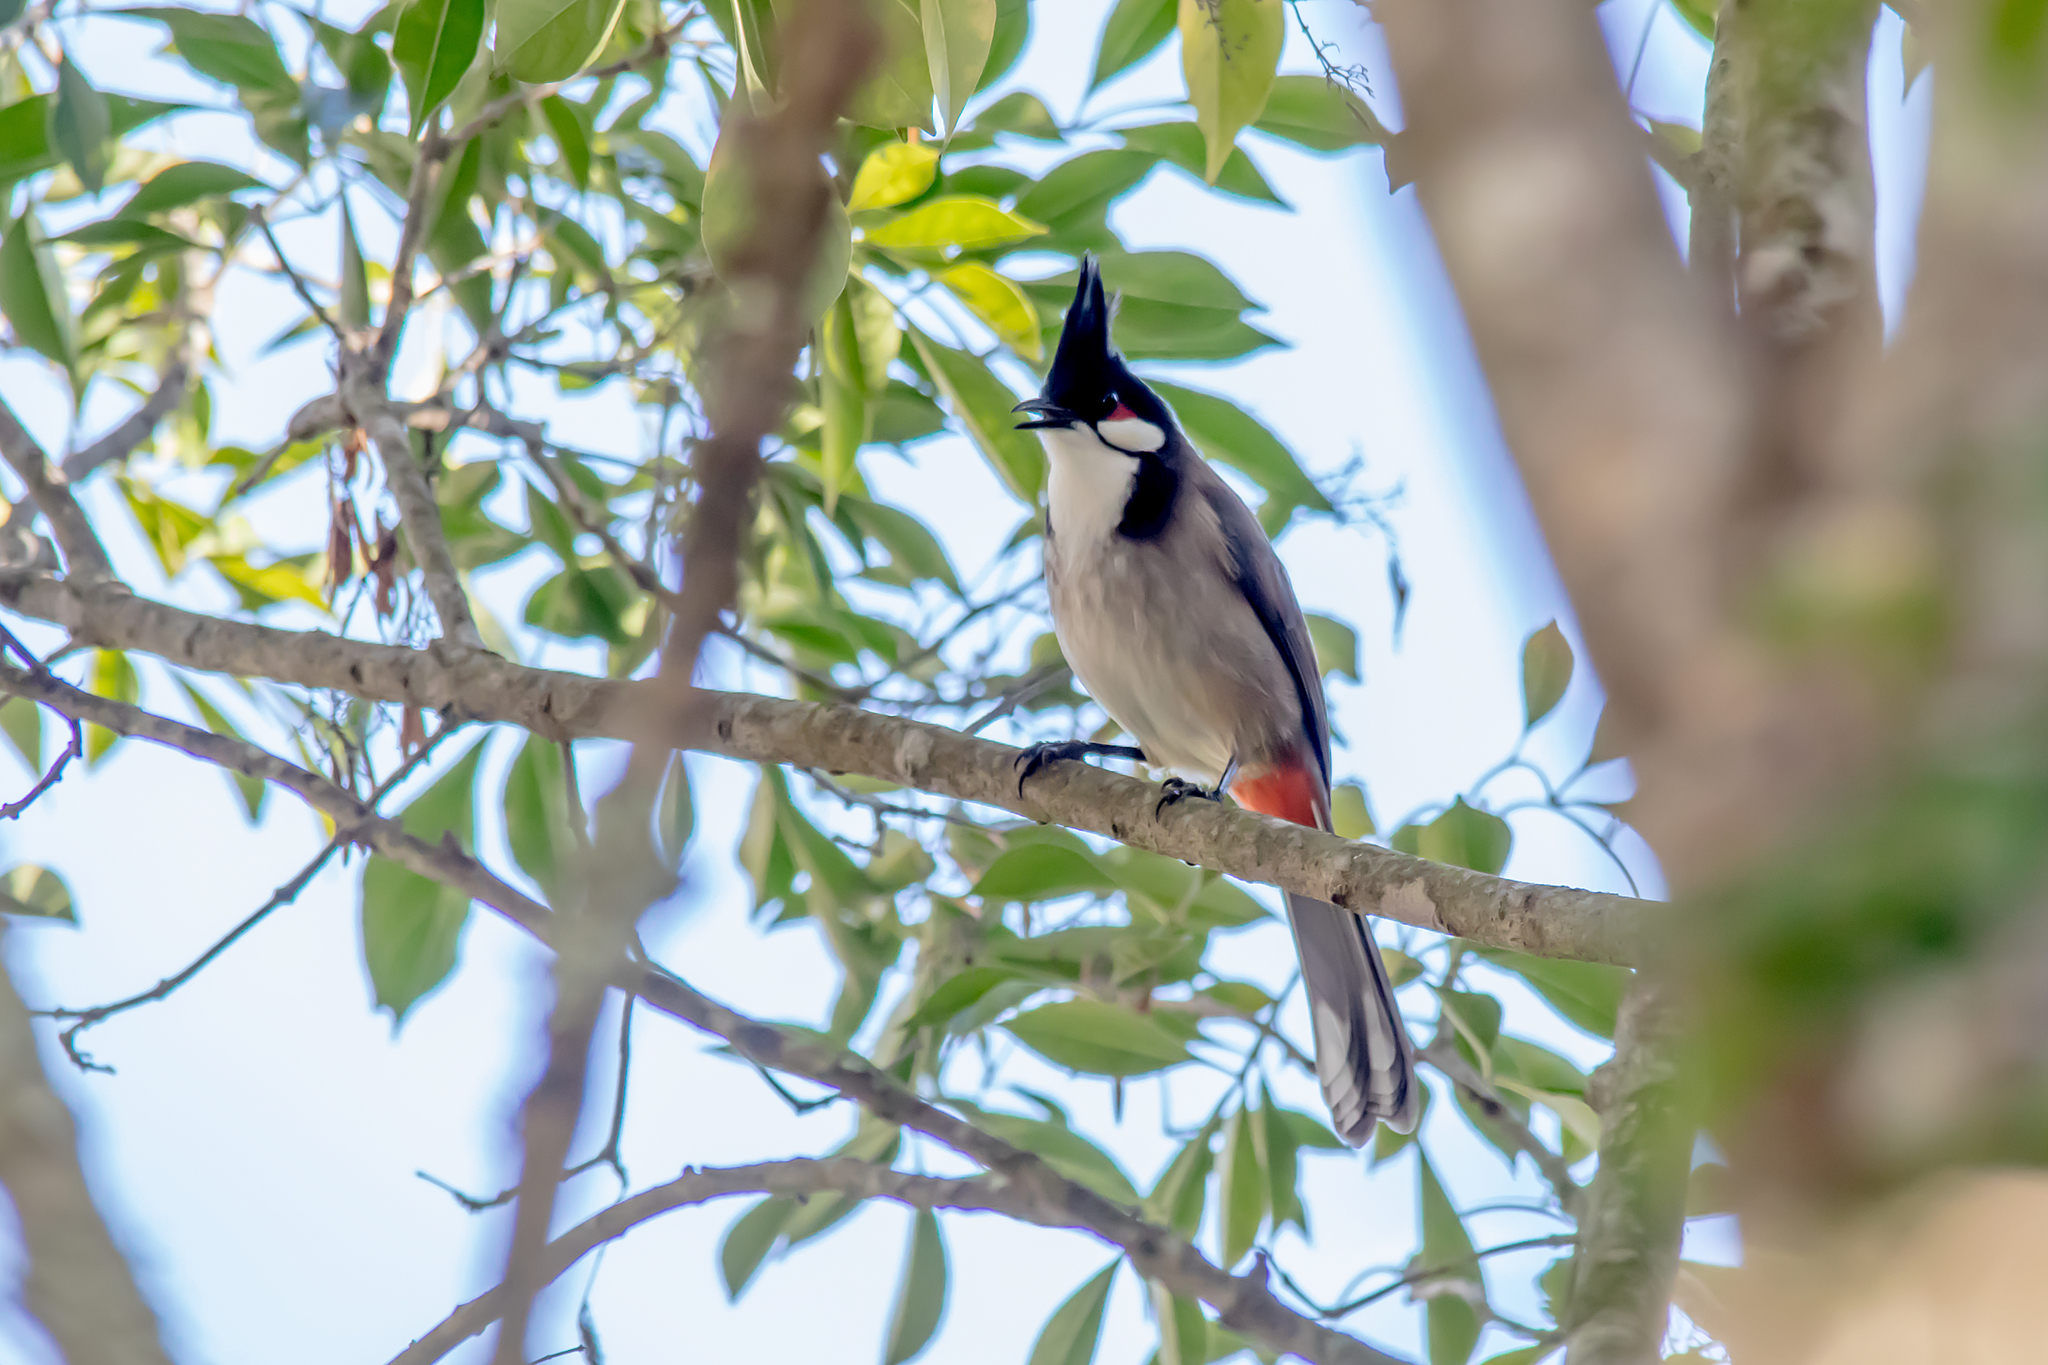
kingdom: Animalia
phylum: Chordata
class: Aves
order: Passeriformes
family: Pycnonotidae
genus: Pycnonotus
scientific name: Pycnonotus jocosus
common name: Red-whiskered bulbul
